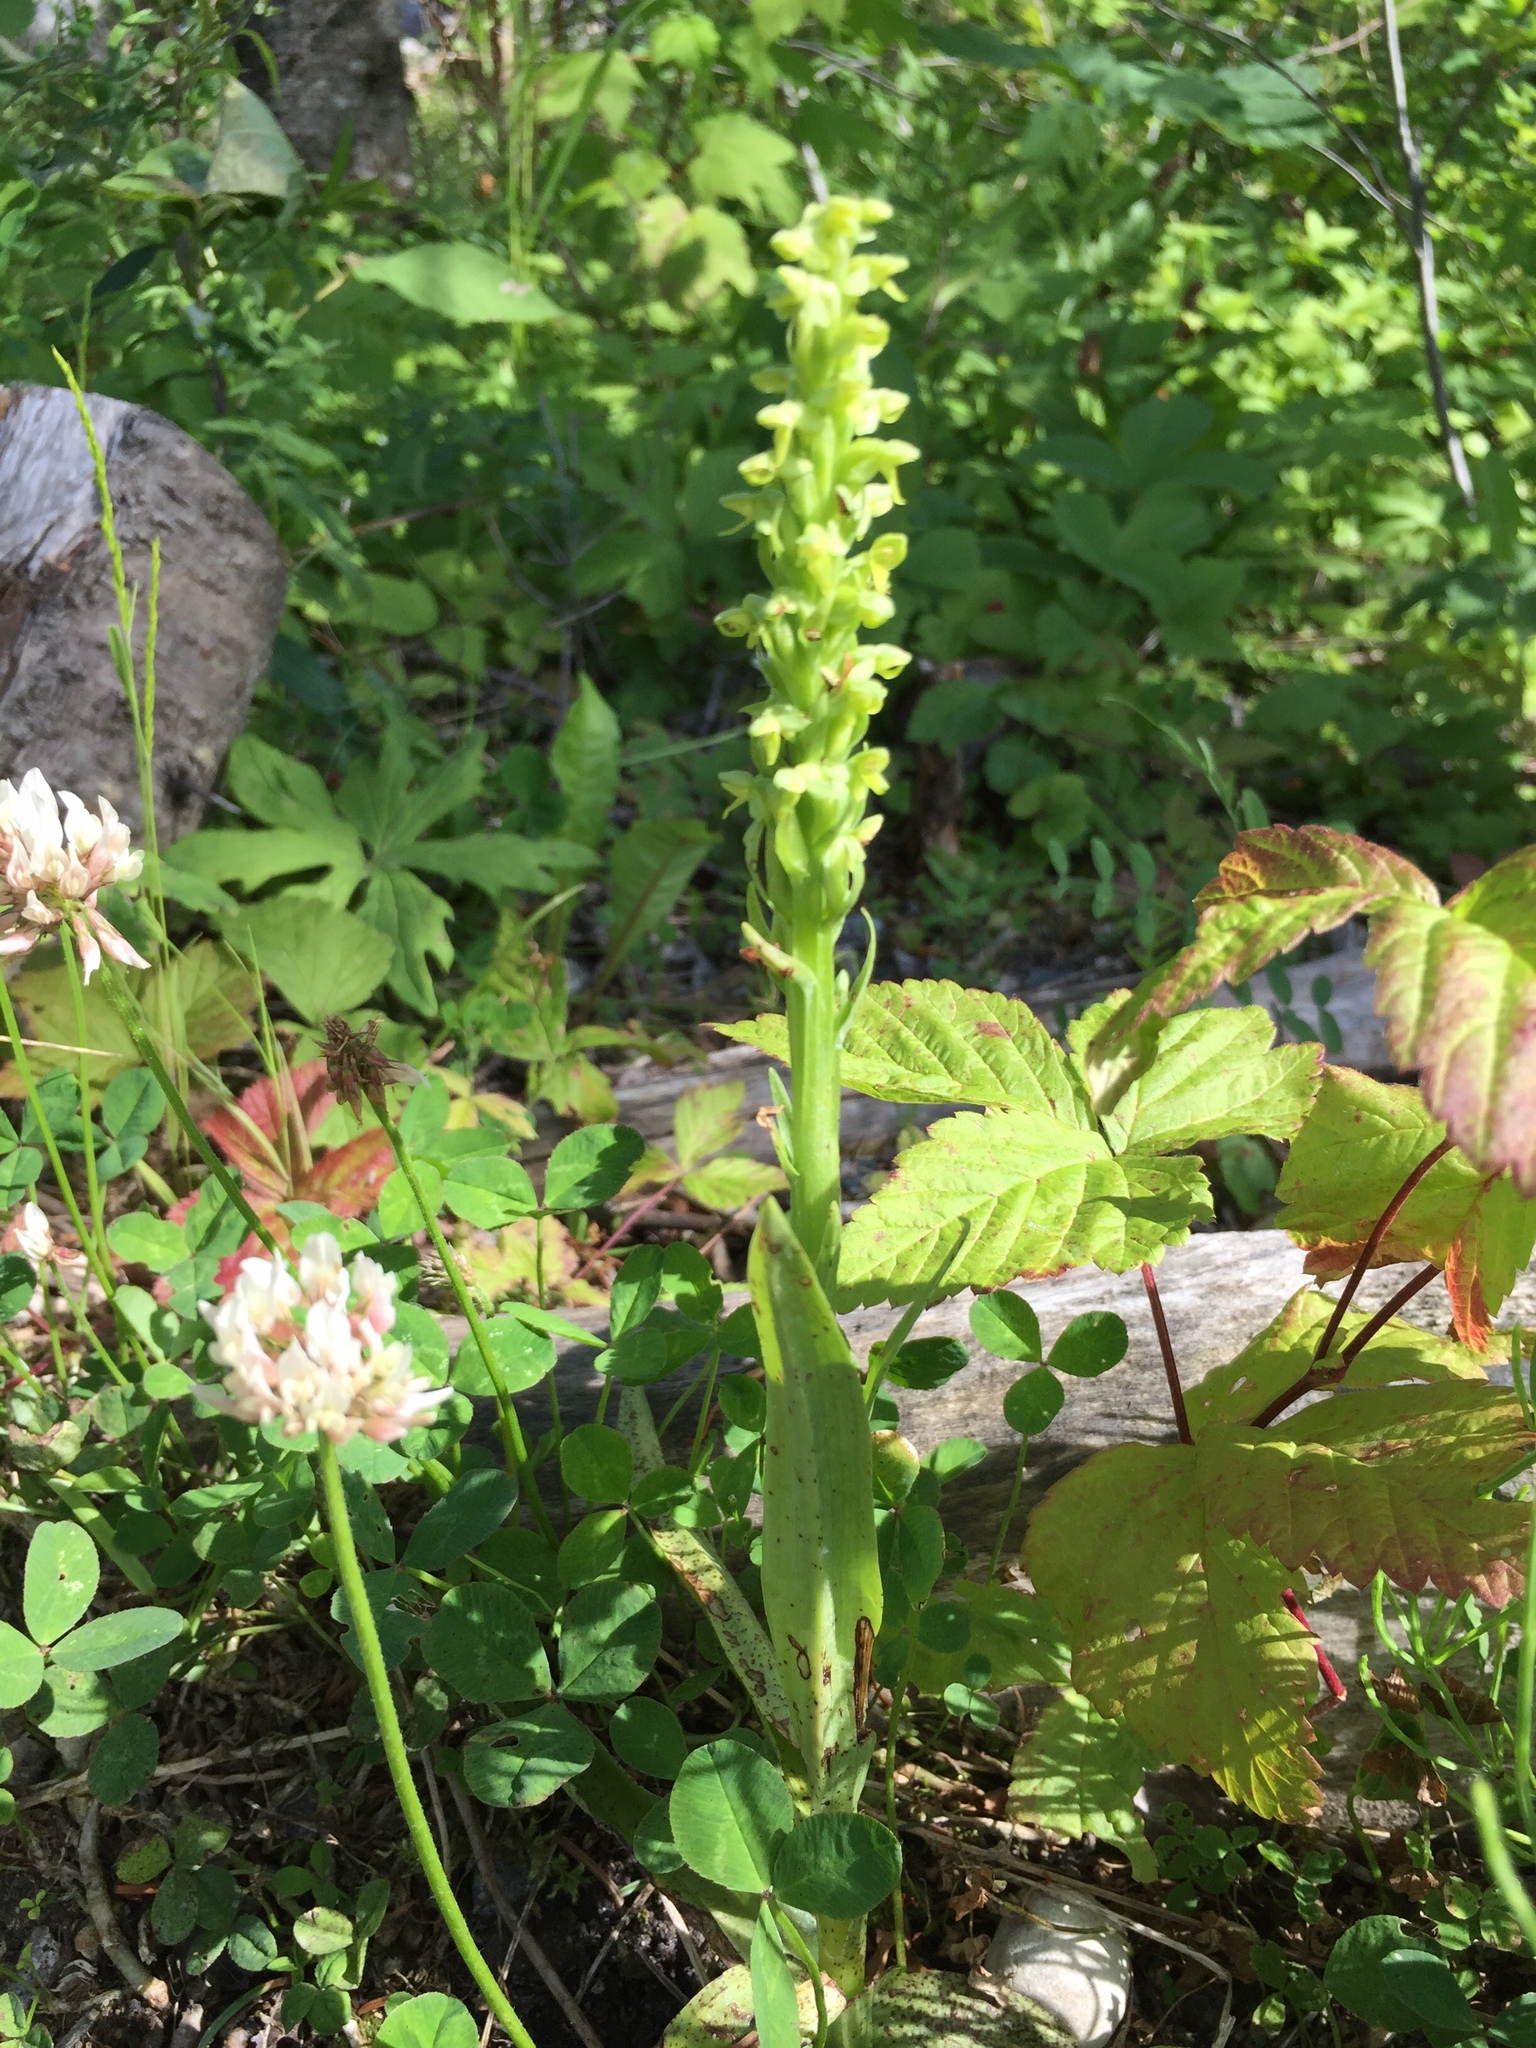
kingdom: Plantae
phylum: Tracheophyta
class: Liliopsida
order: Asparagales
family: Orchidaceae
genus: Dactylorhiza
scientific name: Dactylorhiza viridis
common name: Longbract frog orchid
